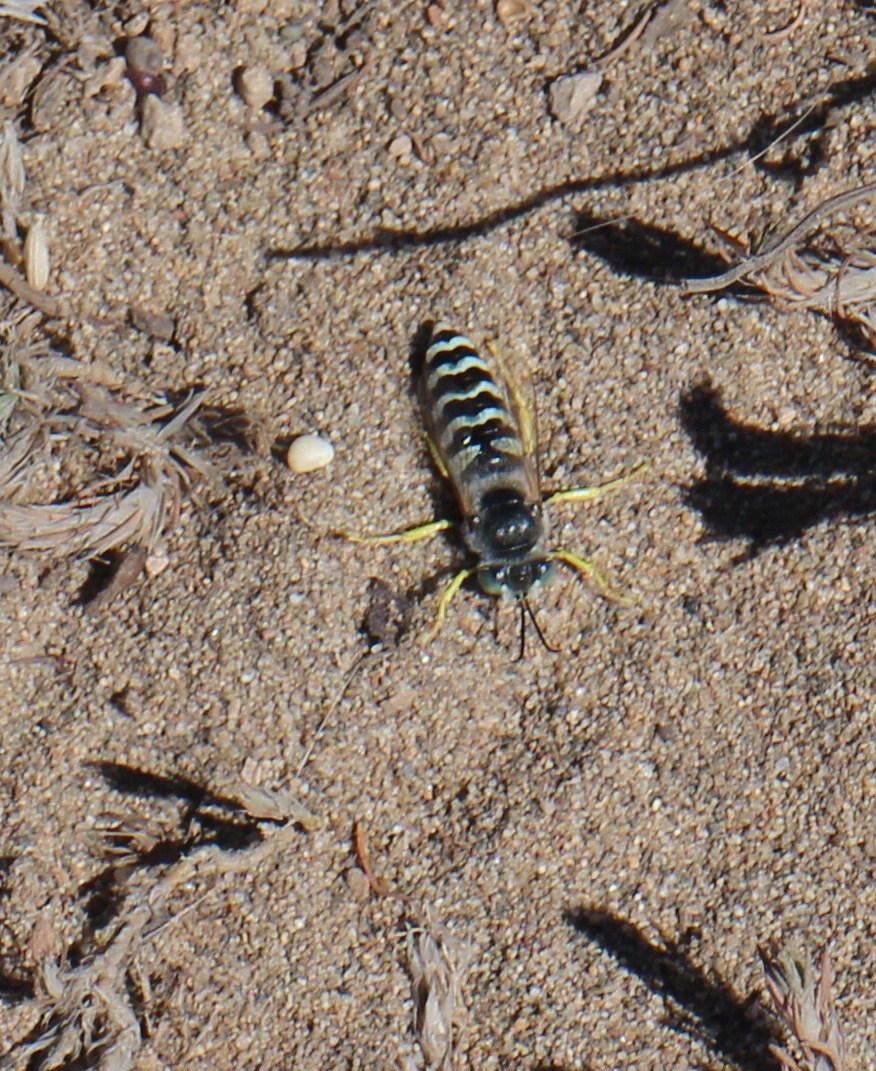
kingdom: Animalia
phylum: Arthropoda
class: Insecta
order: Hymenoptera
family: Crabronidae
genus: Bembix
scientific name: Bembix americana
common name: American sand wasp
